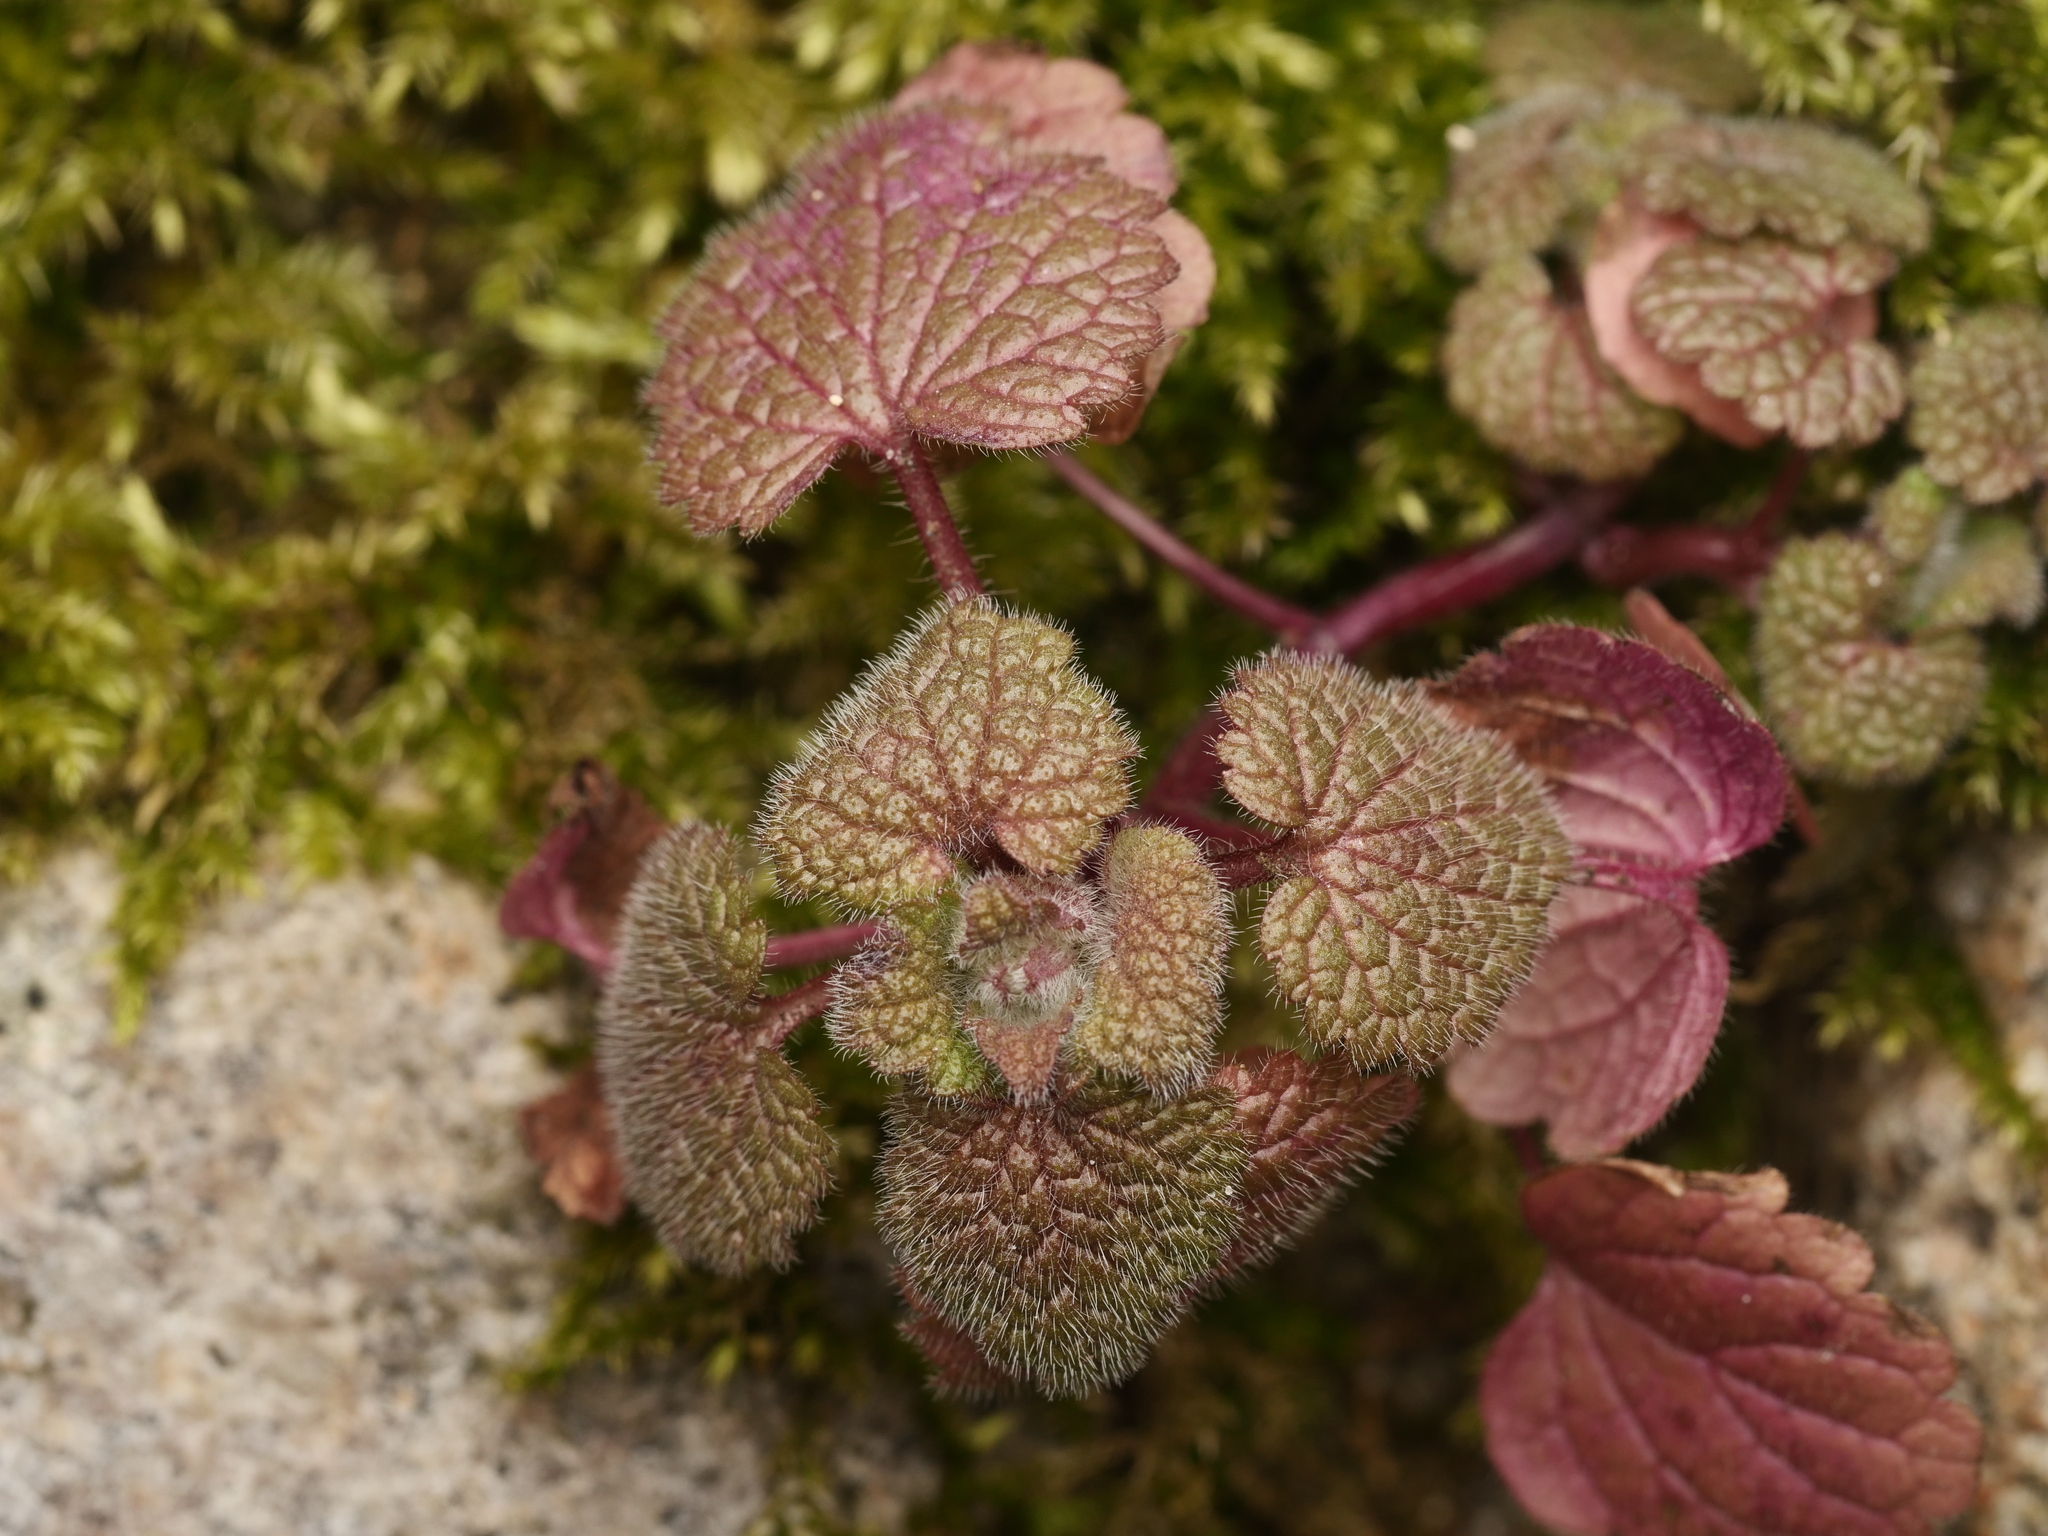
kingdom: Plantae
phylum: Tracheophyta
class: Magnoliopsida
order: Lamiales
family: Lamiaceae
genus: Lamium
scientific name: Lamium purpureum
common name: Red dead-nettle
